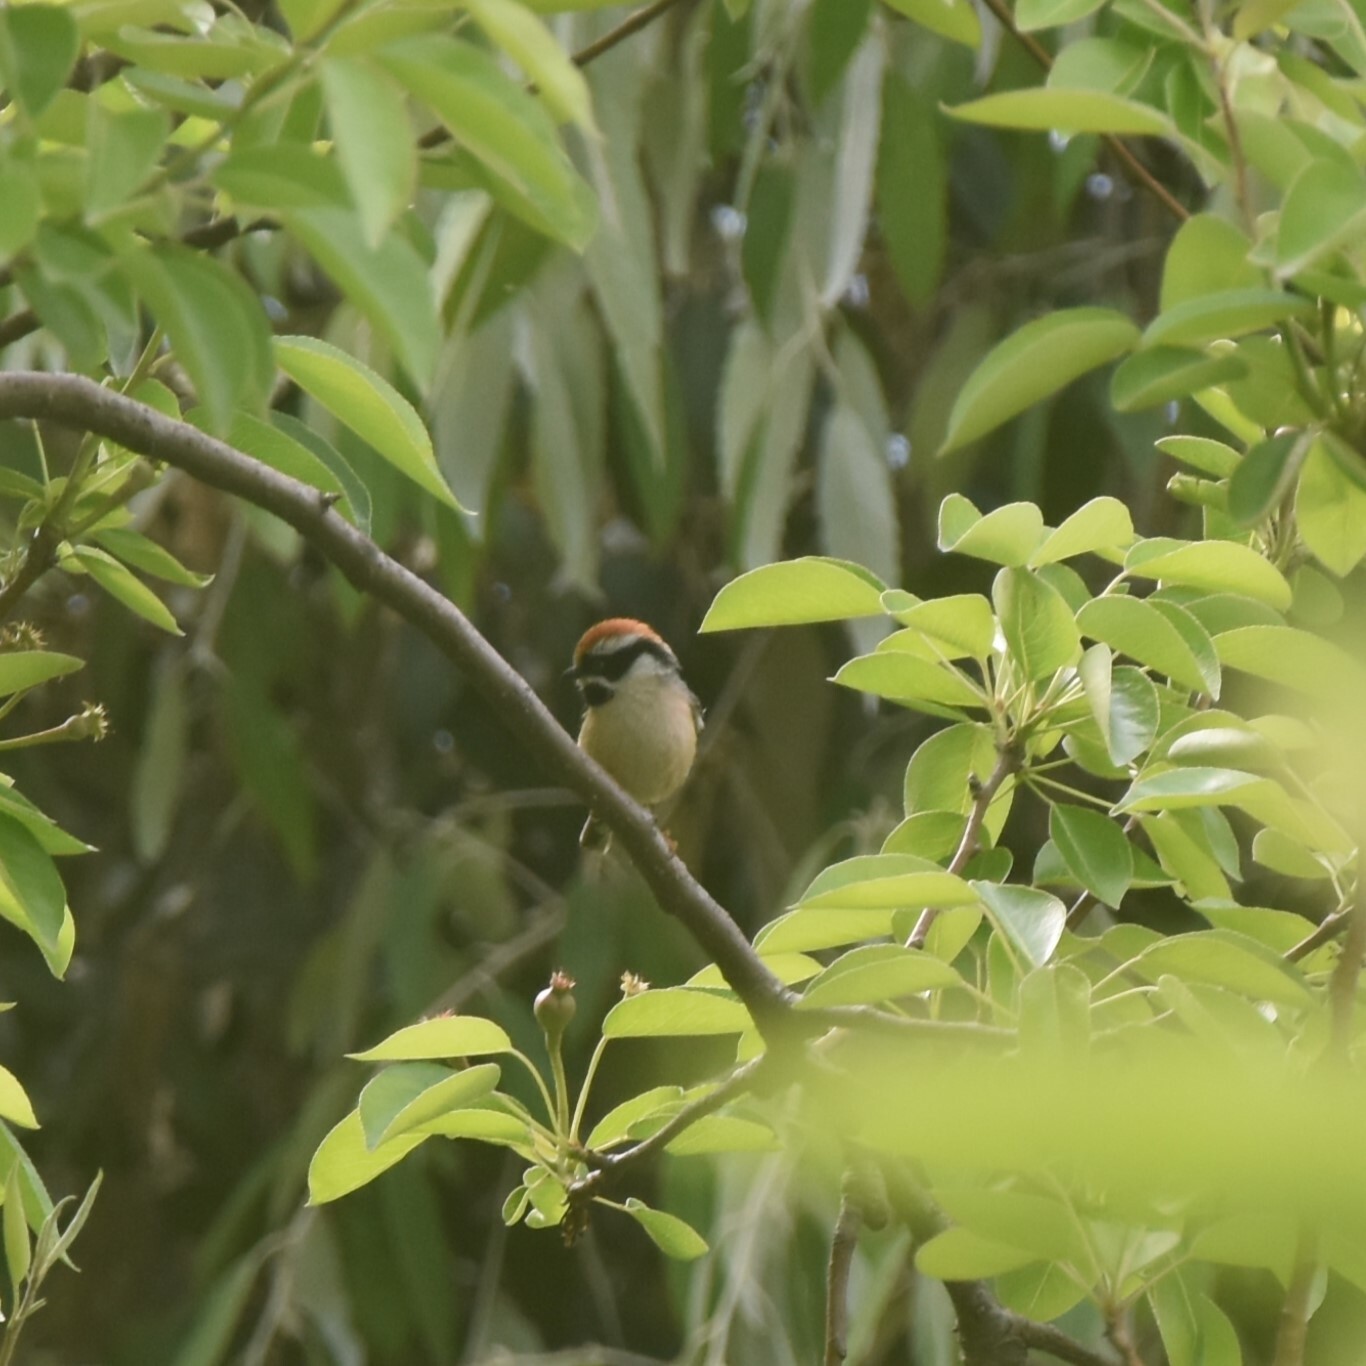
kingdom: Animalia
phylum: Chordata
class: Aves
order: Passeriformes
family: Aegithalidae
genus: Aegithalos
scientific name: Aegithalos concinnus
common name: Black-throated bushtit
